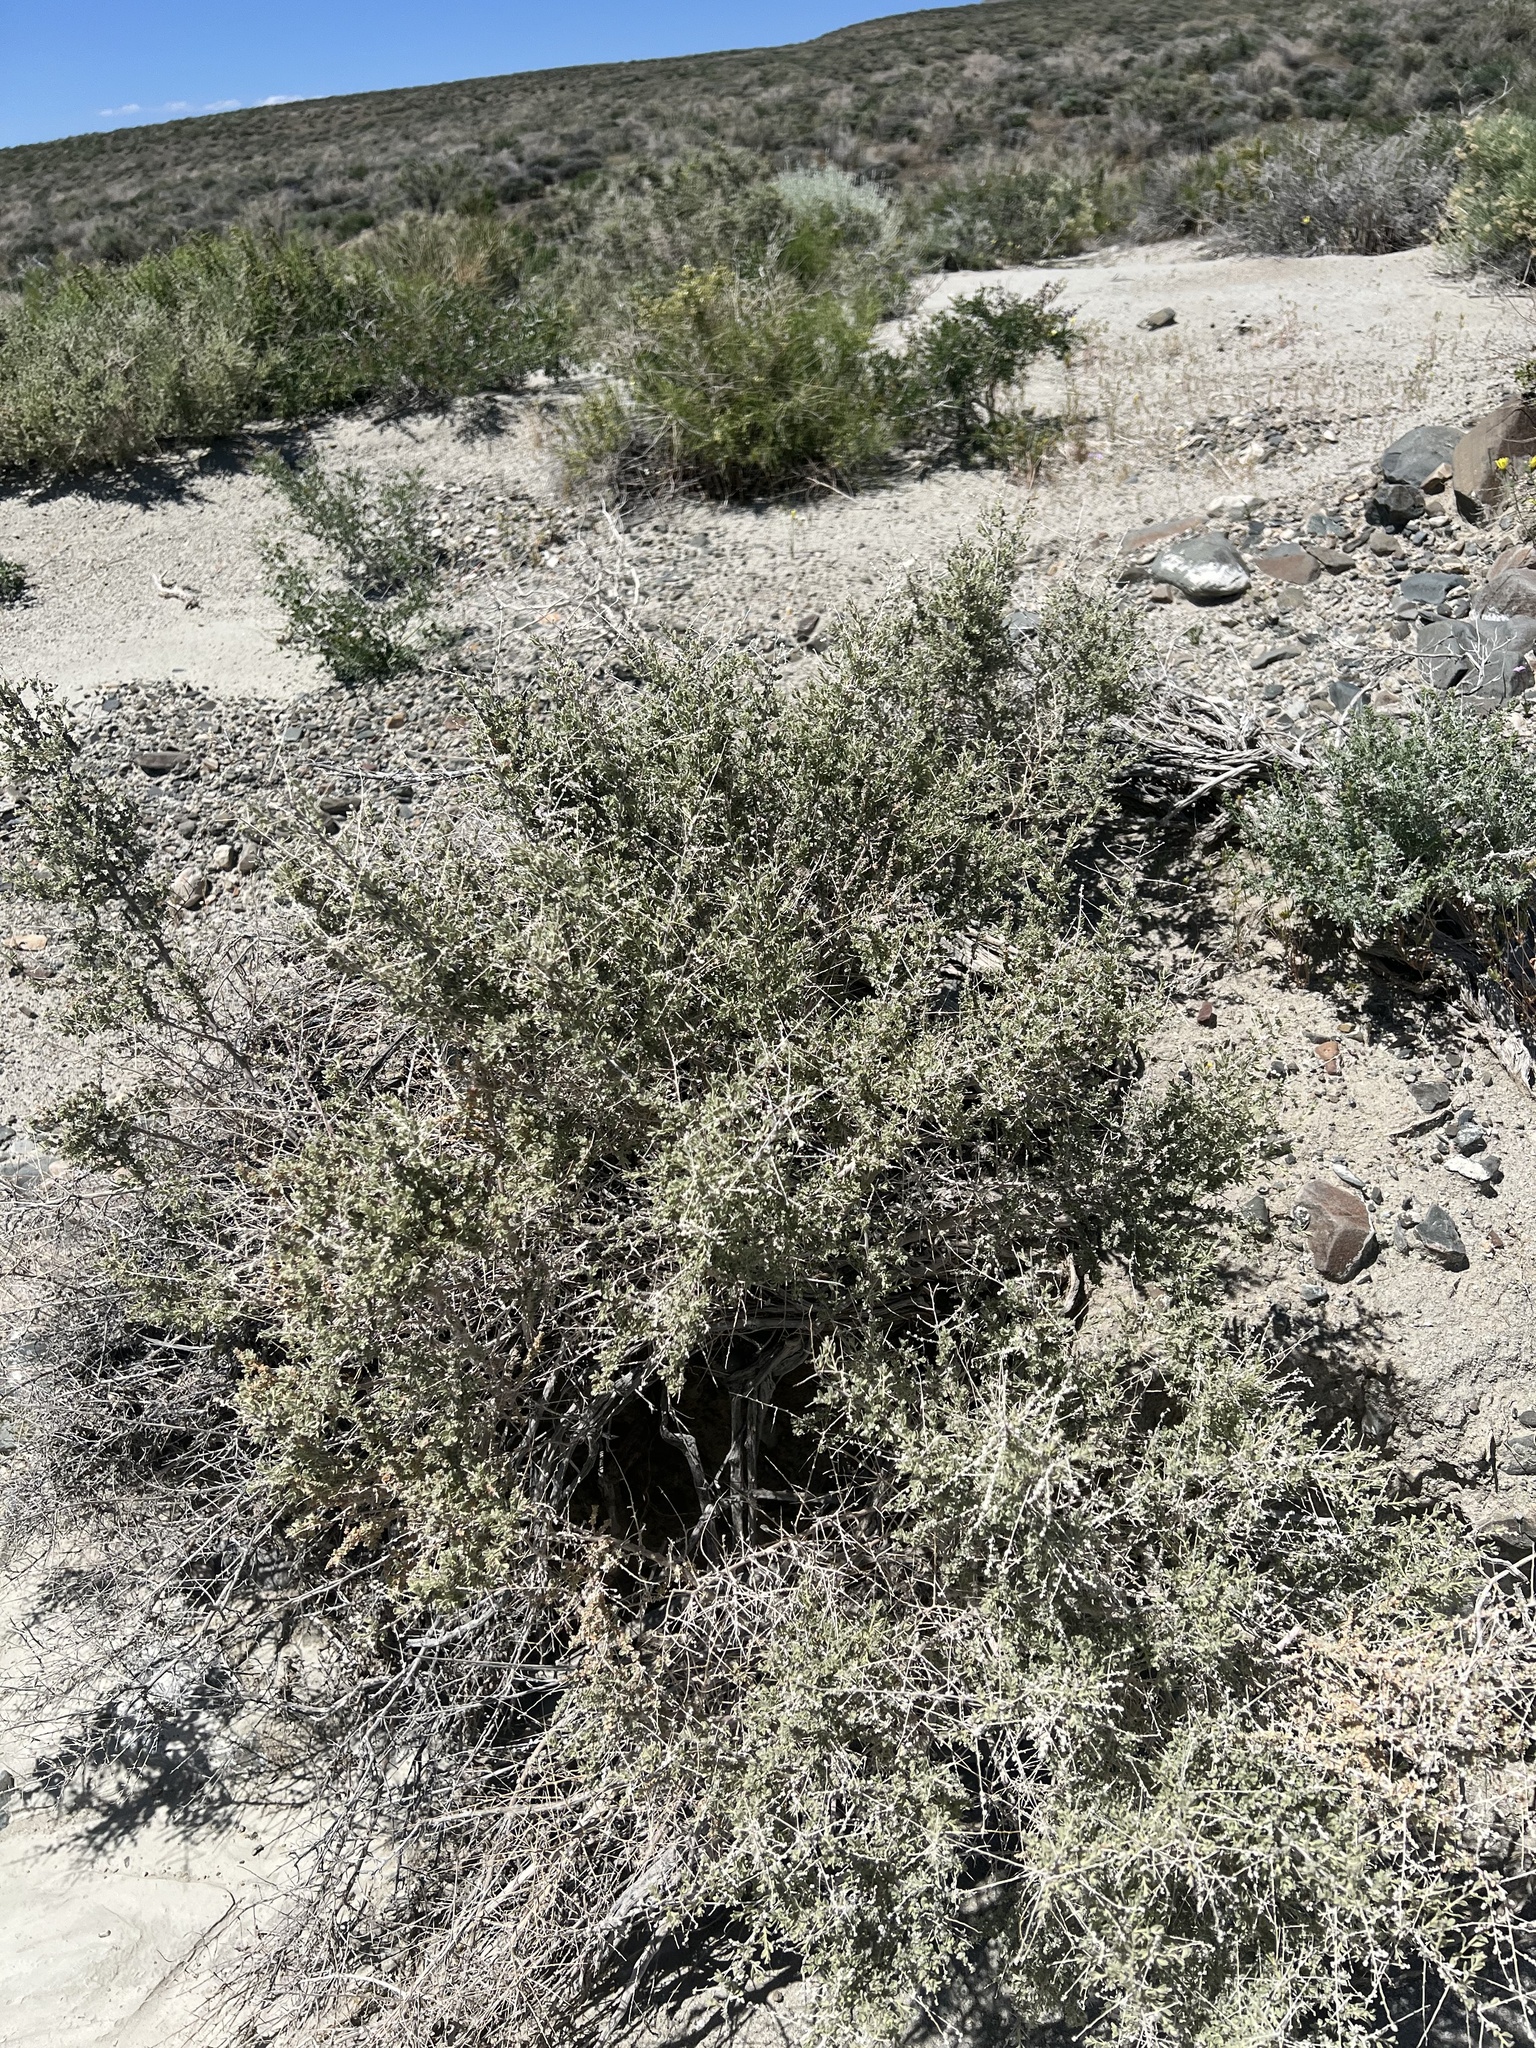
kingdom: Plantae
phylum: Tracheophyta
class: Magnoliopsida
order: Caryophyllales
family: Amaranthaceae
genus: Atriplex
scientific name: Atriplex polycarpa
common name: Desert saltbush
